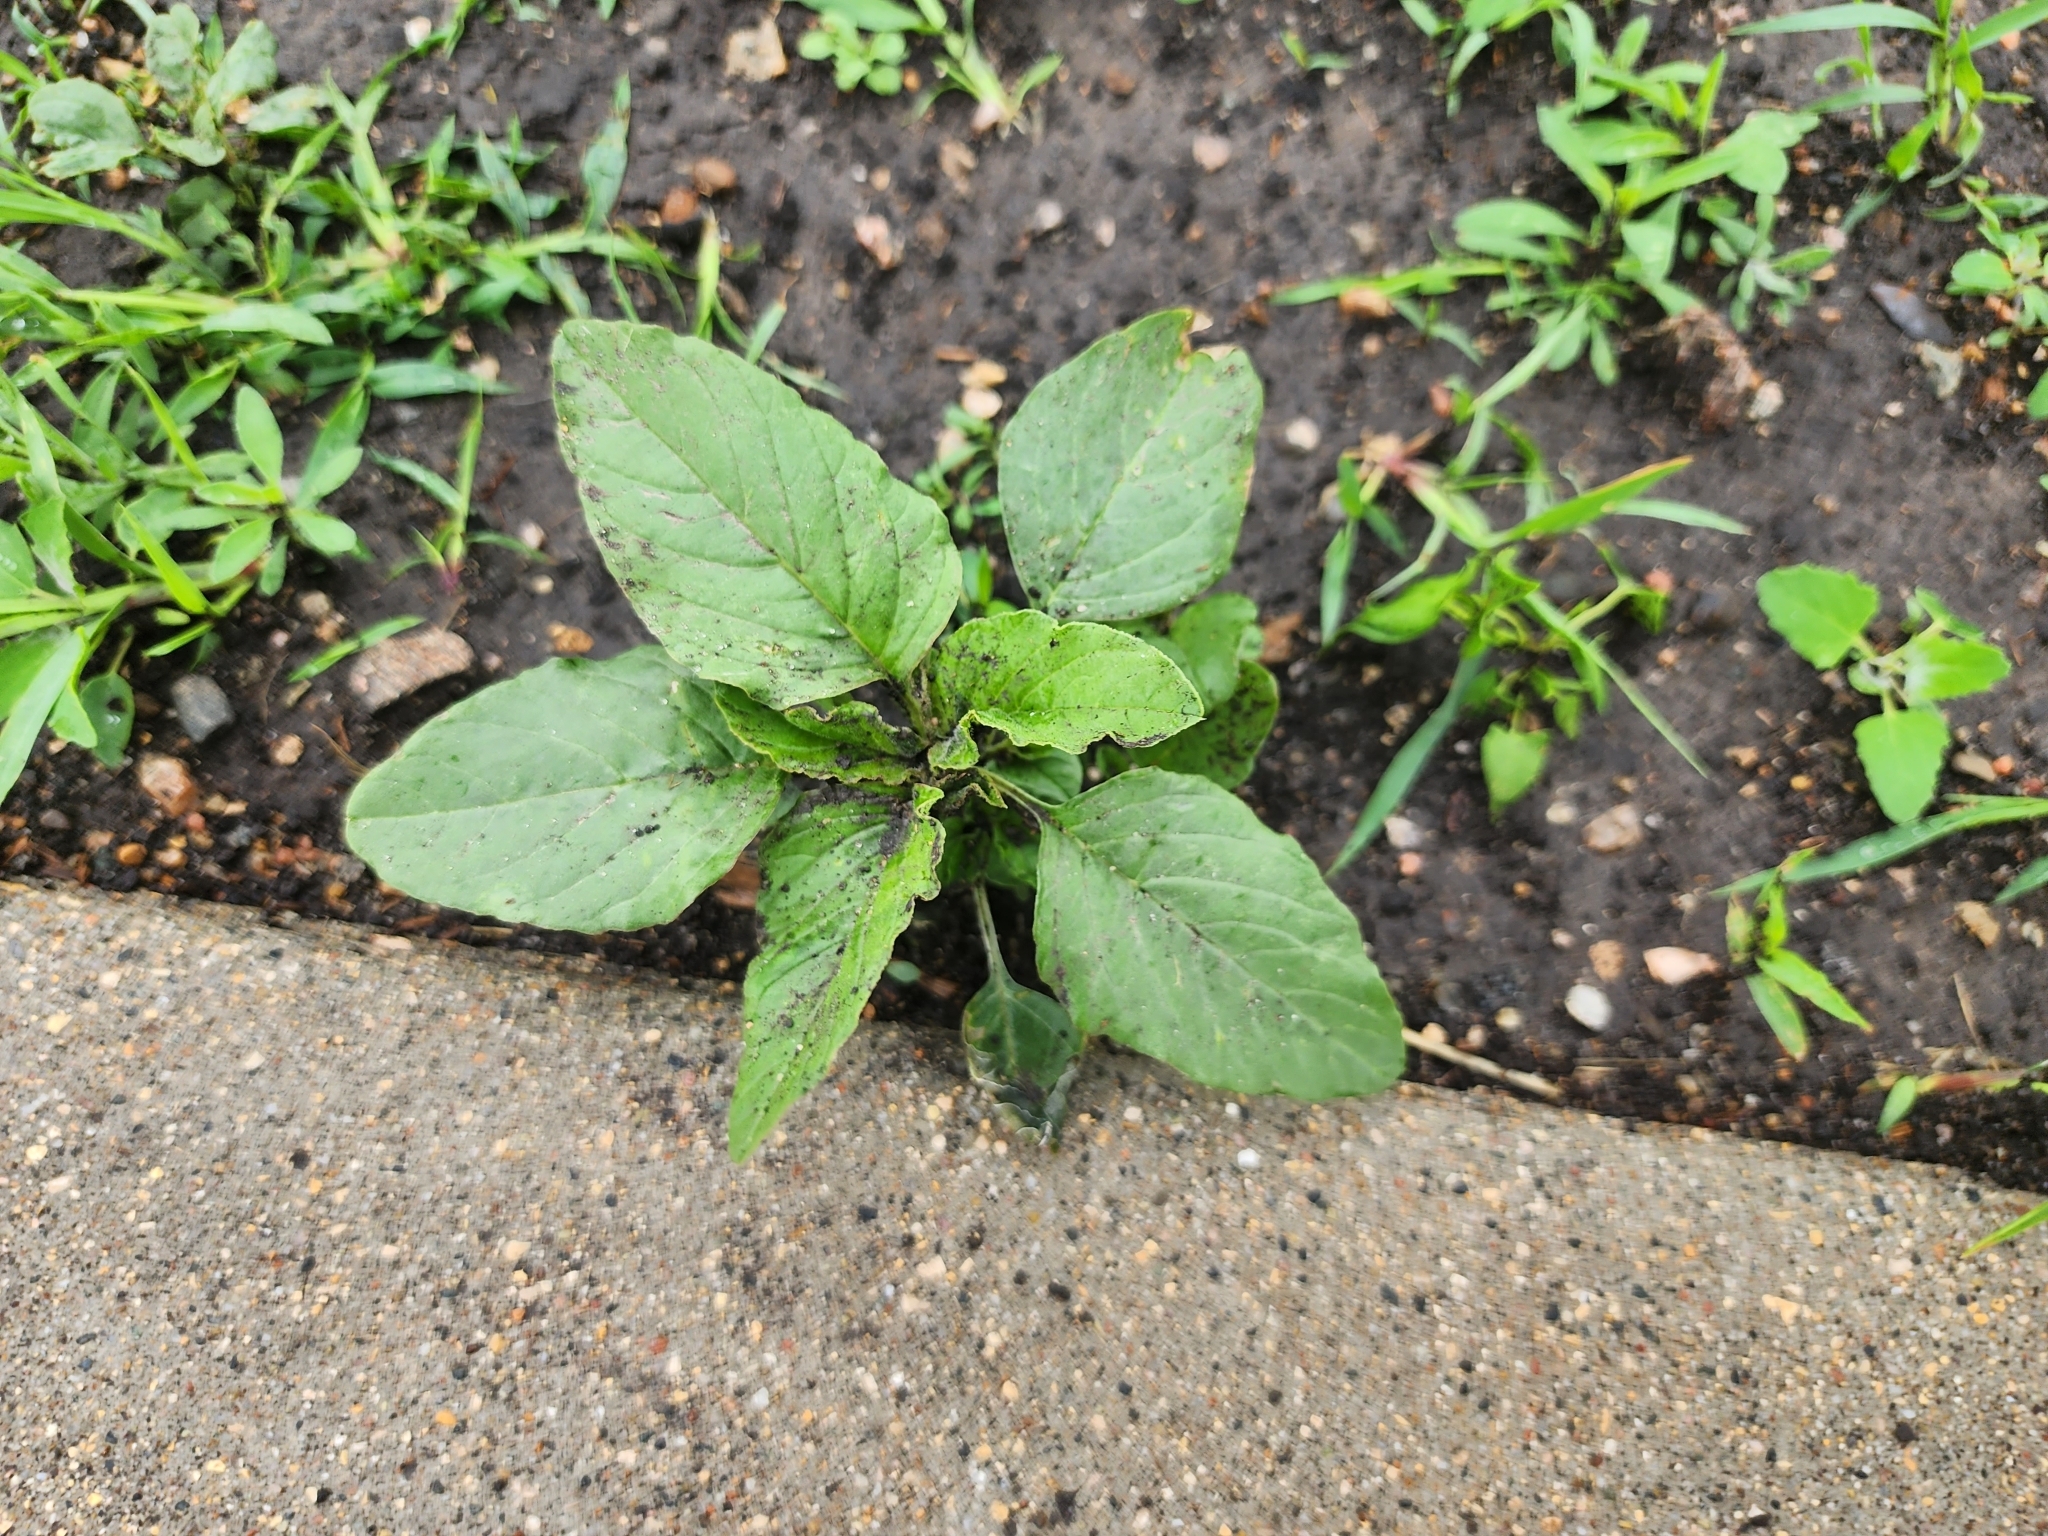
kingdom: Plantae
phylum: Tracheophyta
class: Magnoliopsida
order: Caryophyllales
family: Amaranthaceae
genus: Amaranthus
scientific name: Amaranthus retroflexus
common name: Redroot amaranth
